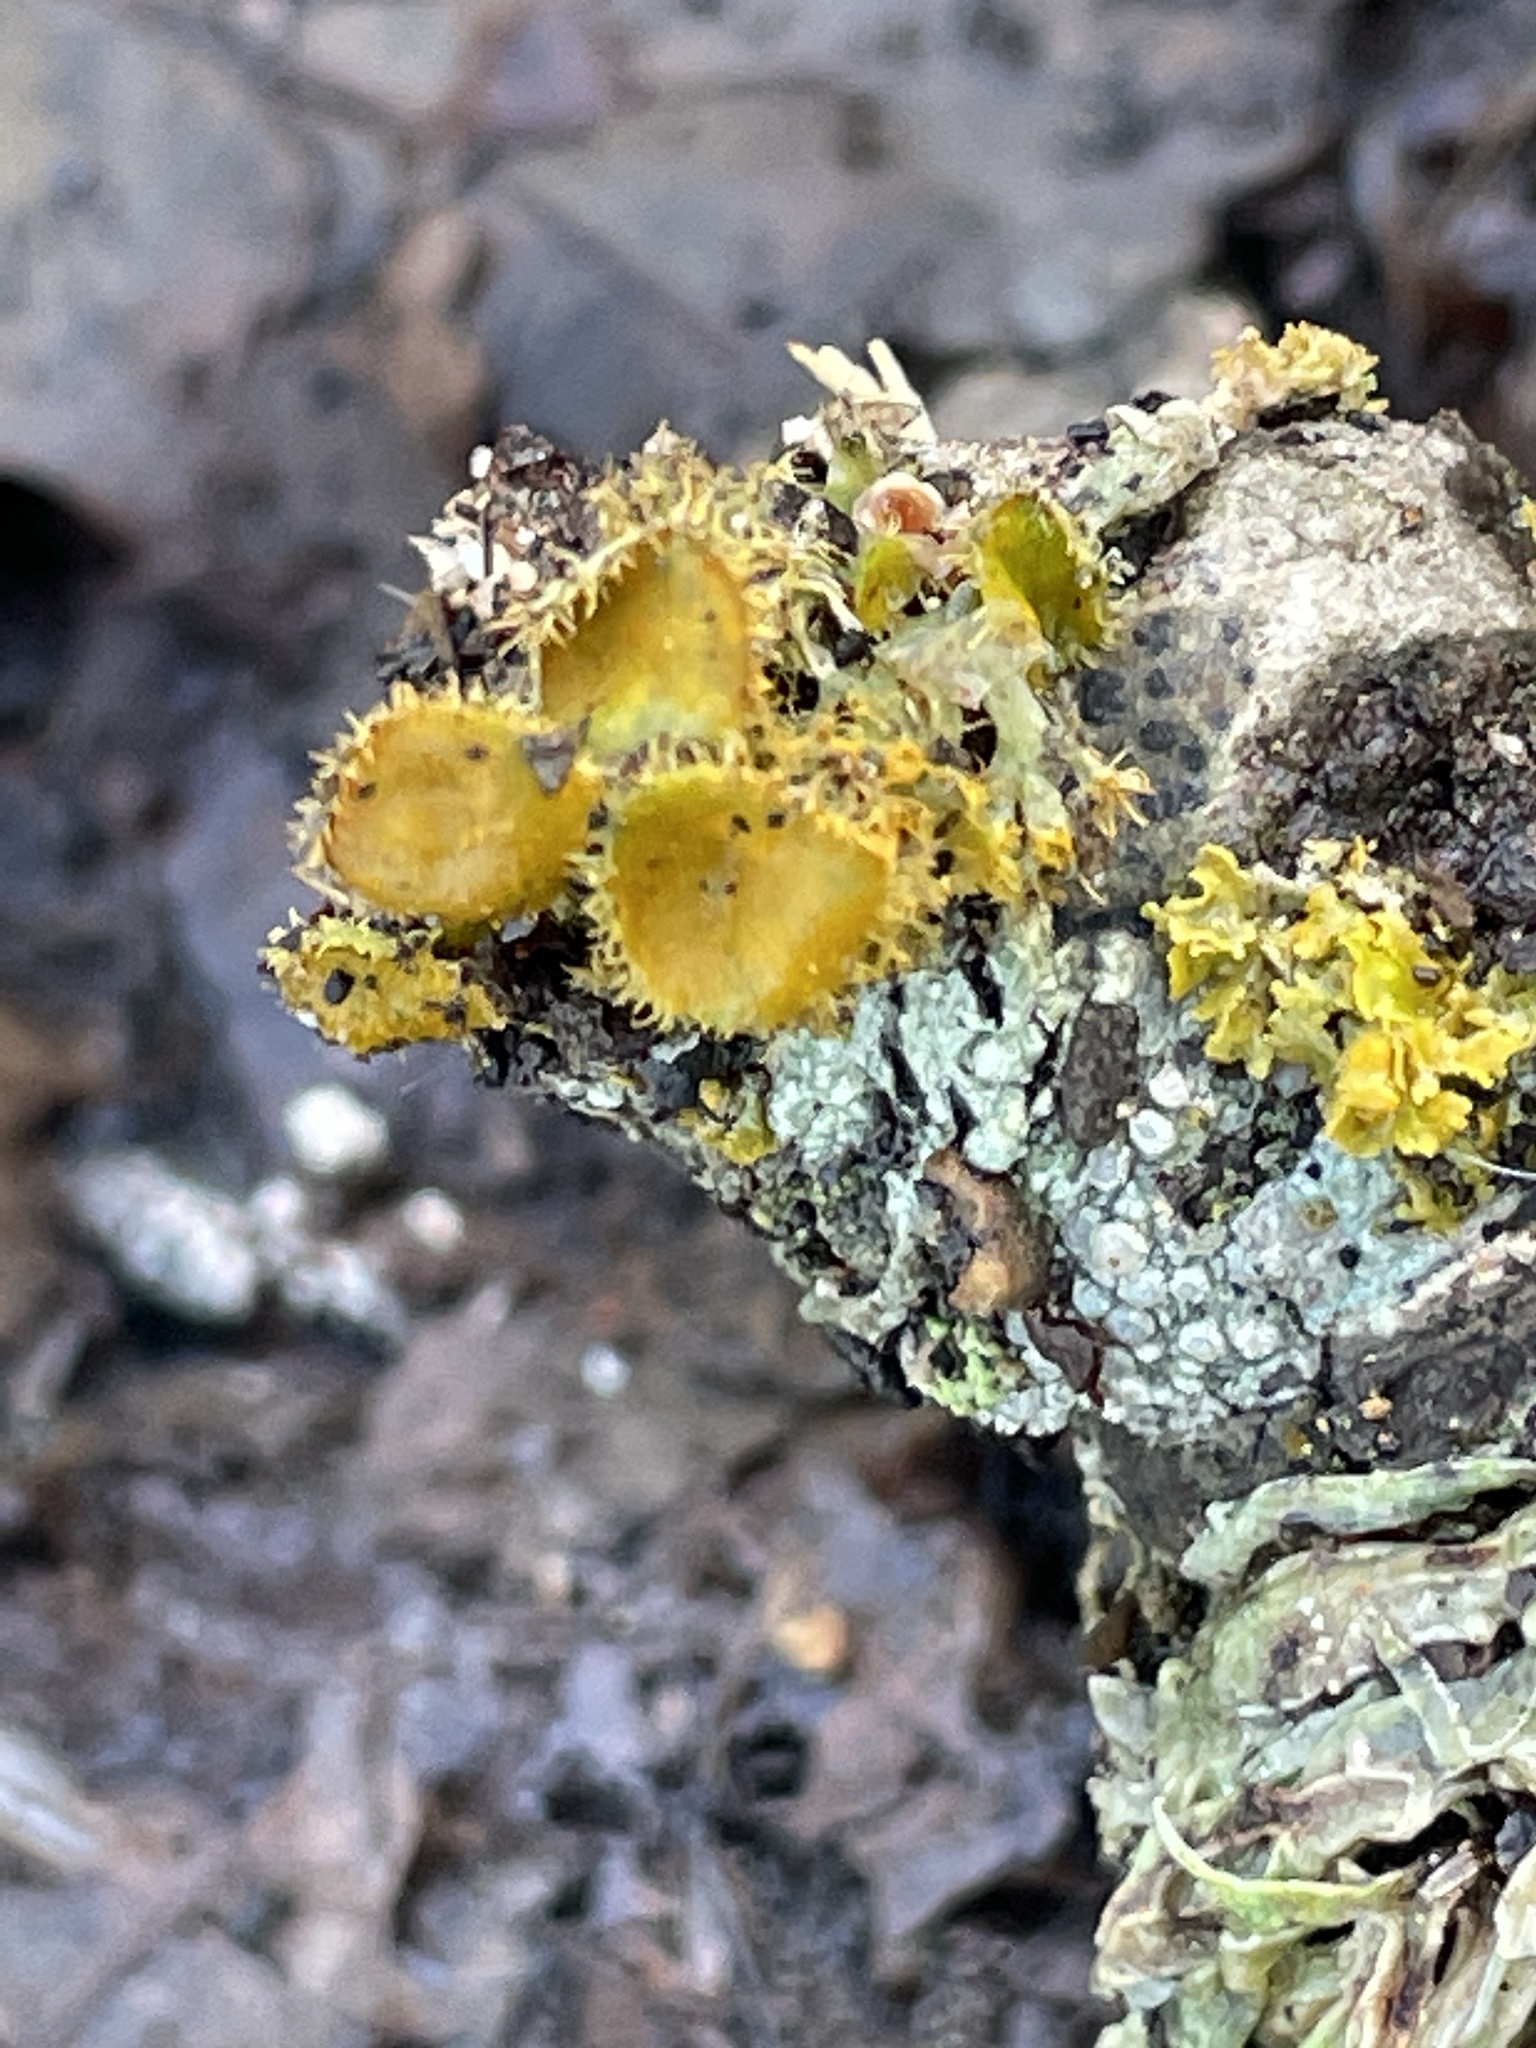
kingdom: Fungi
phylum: Ascomycota
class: Lecanoromycetes
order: Teloschistales
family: Teloschistaceae
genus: Niorma
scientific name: Niorma chrysophthalma
